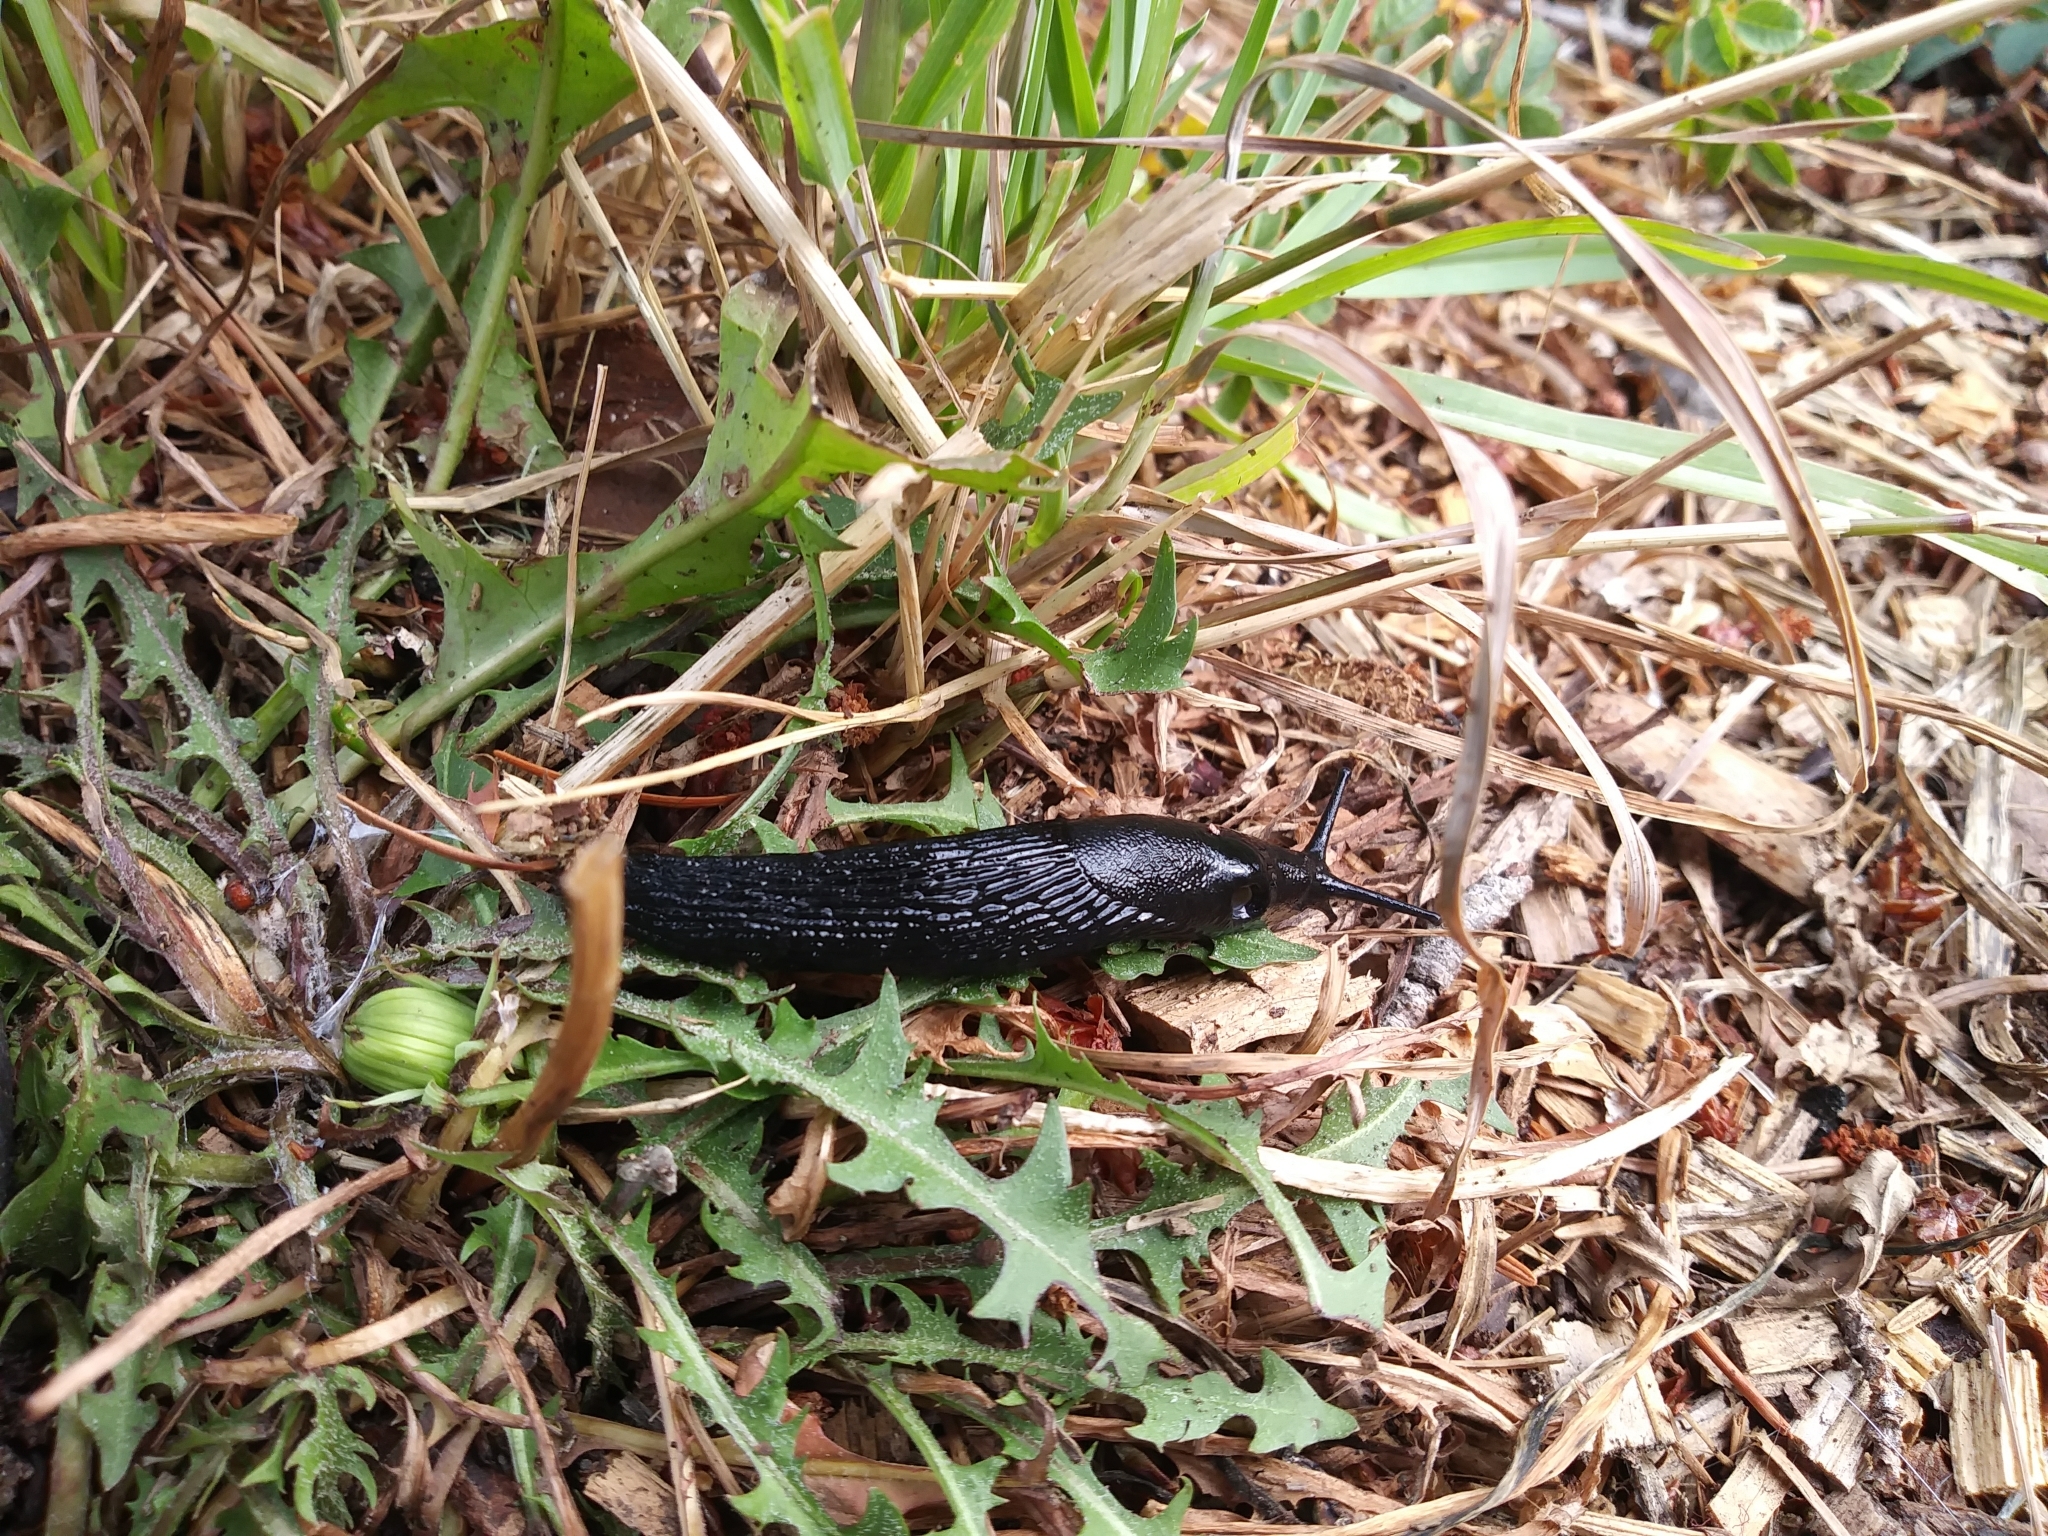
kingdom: Animalia
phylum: Mollusca
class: Gastropoda
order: Stylommatophora
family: Arionidae
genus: Arion
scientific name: Arion
